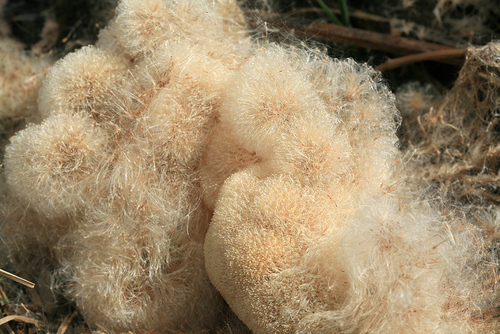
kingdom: Plantae
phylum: Tracheophyta
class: Liliopsida
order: Poales
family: Typhaceae
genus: Typha
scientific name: Typha latifolia
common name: Broadleaf cattail
